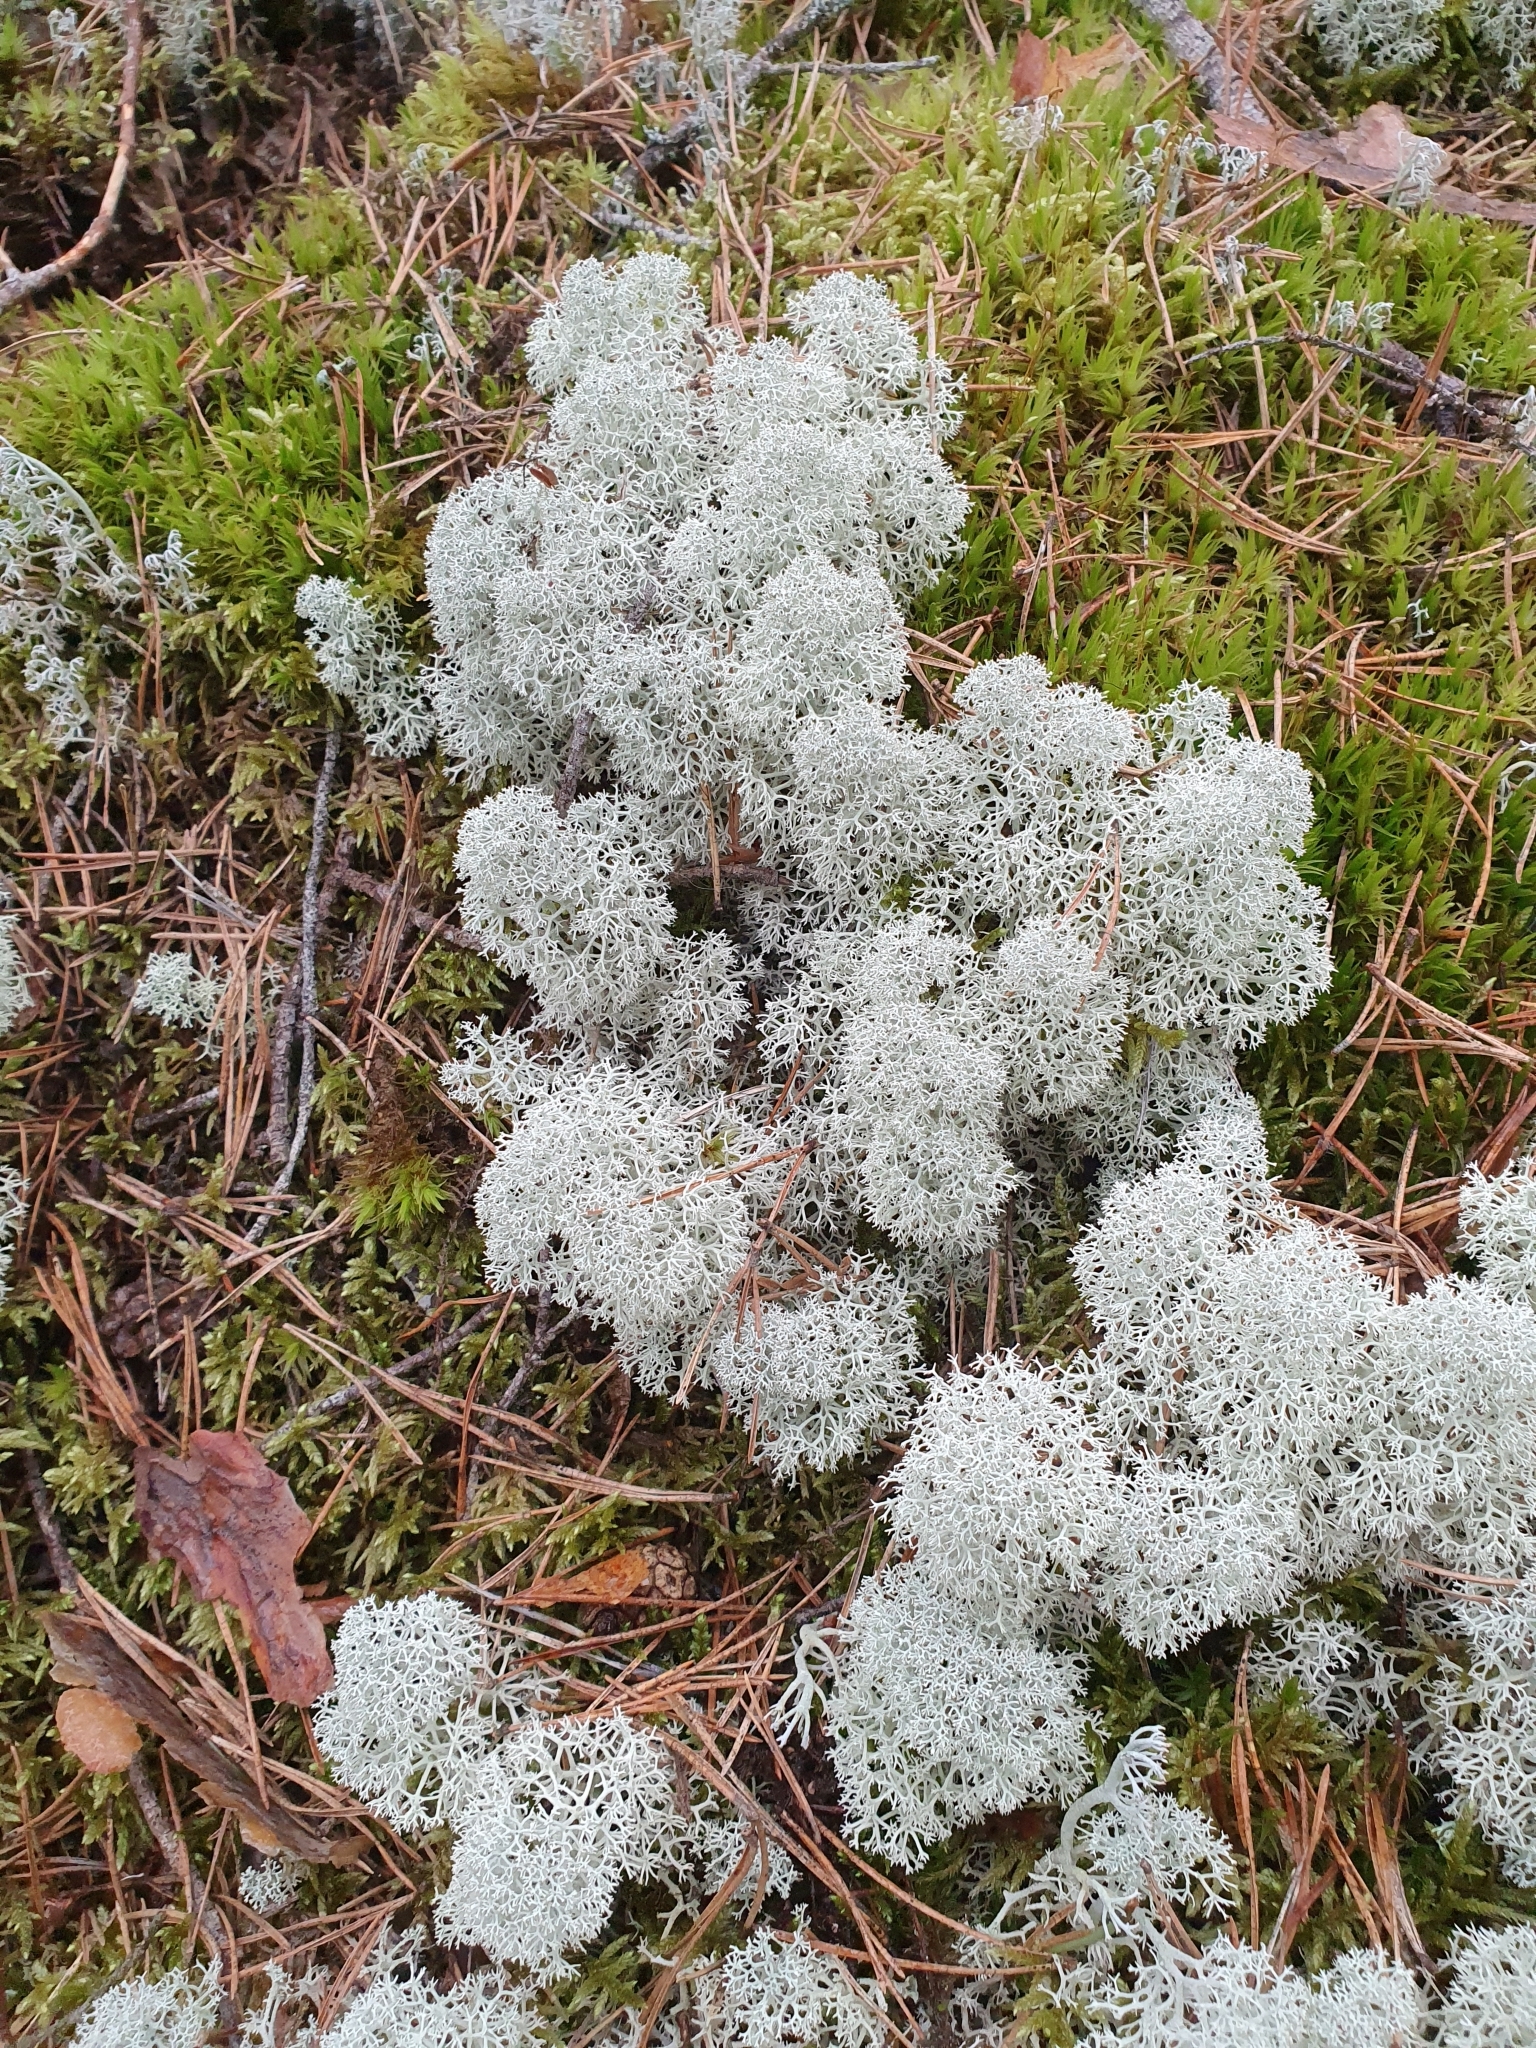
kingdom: Fungi
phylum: Ascomycota
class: Lecanoromycetes
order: Lecanorales
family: Cladoniaceae
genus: Cladonia
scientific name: Cladonia stellaris
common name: Star-tipped reindeer lichen
